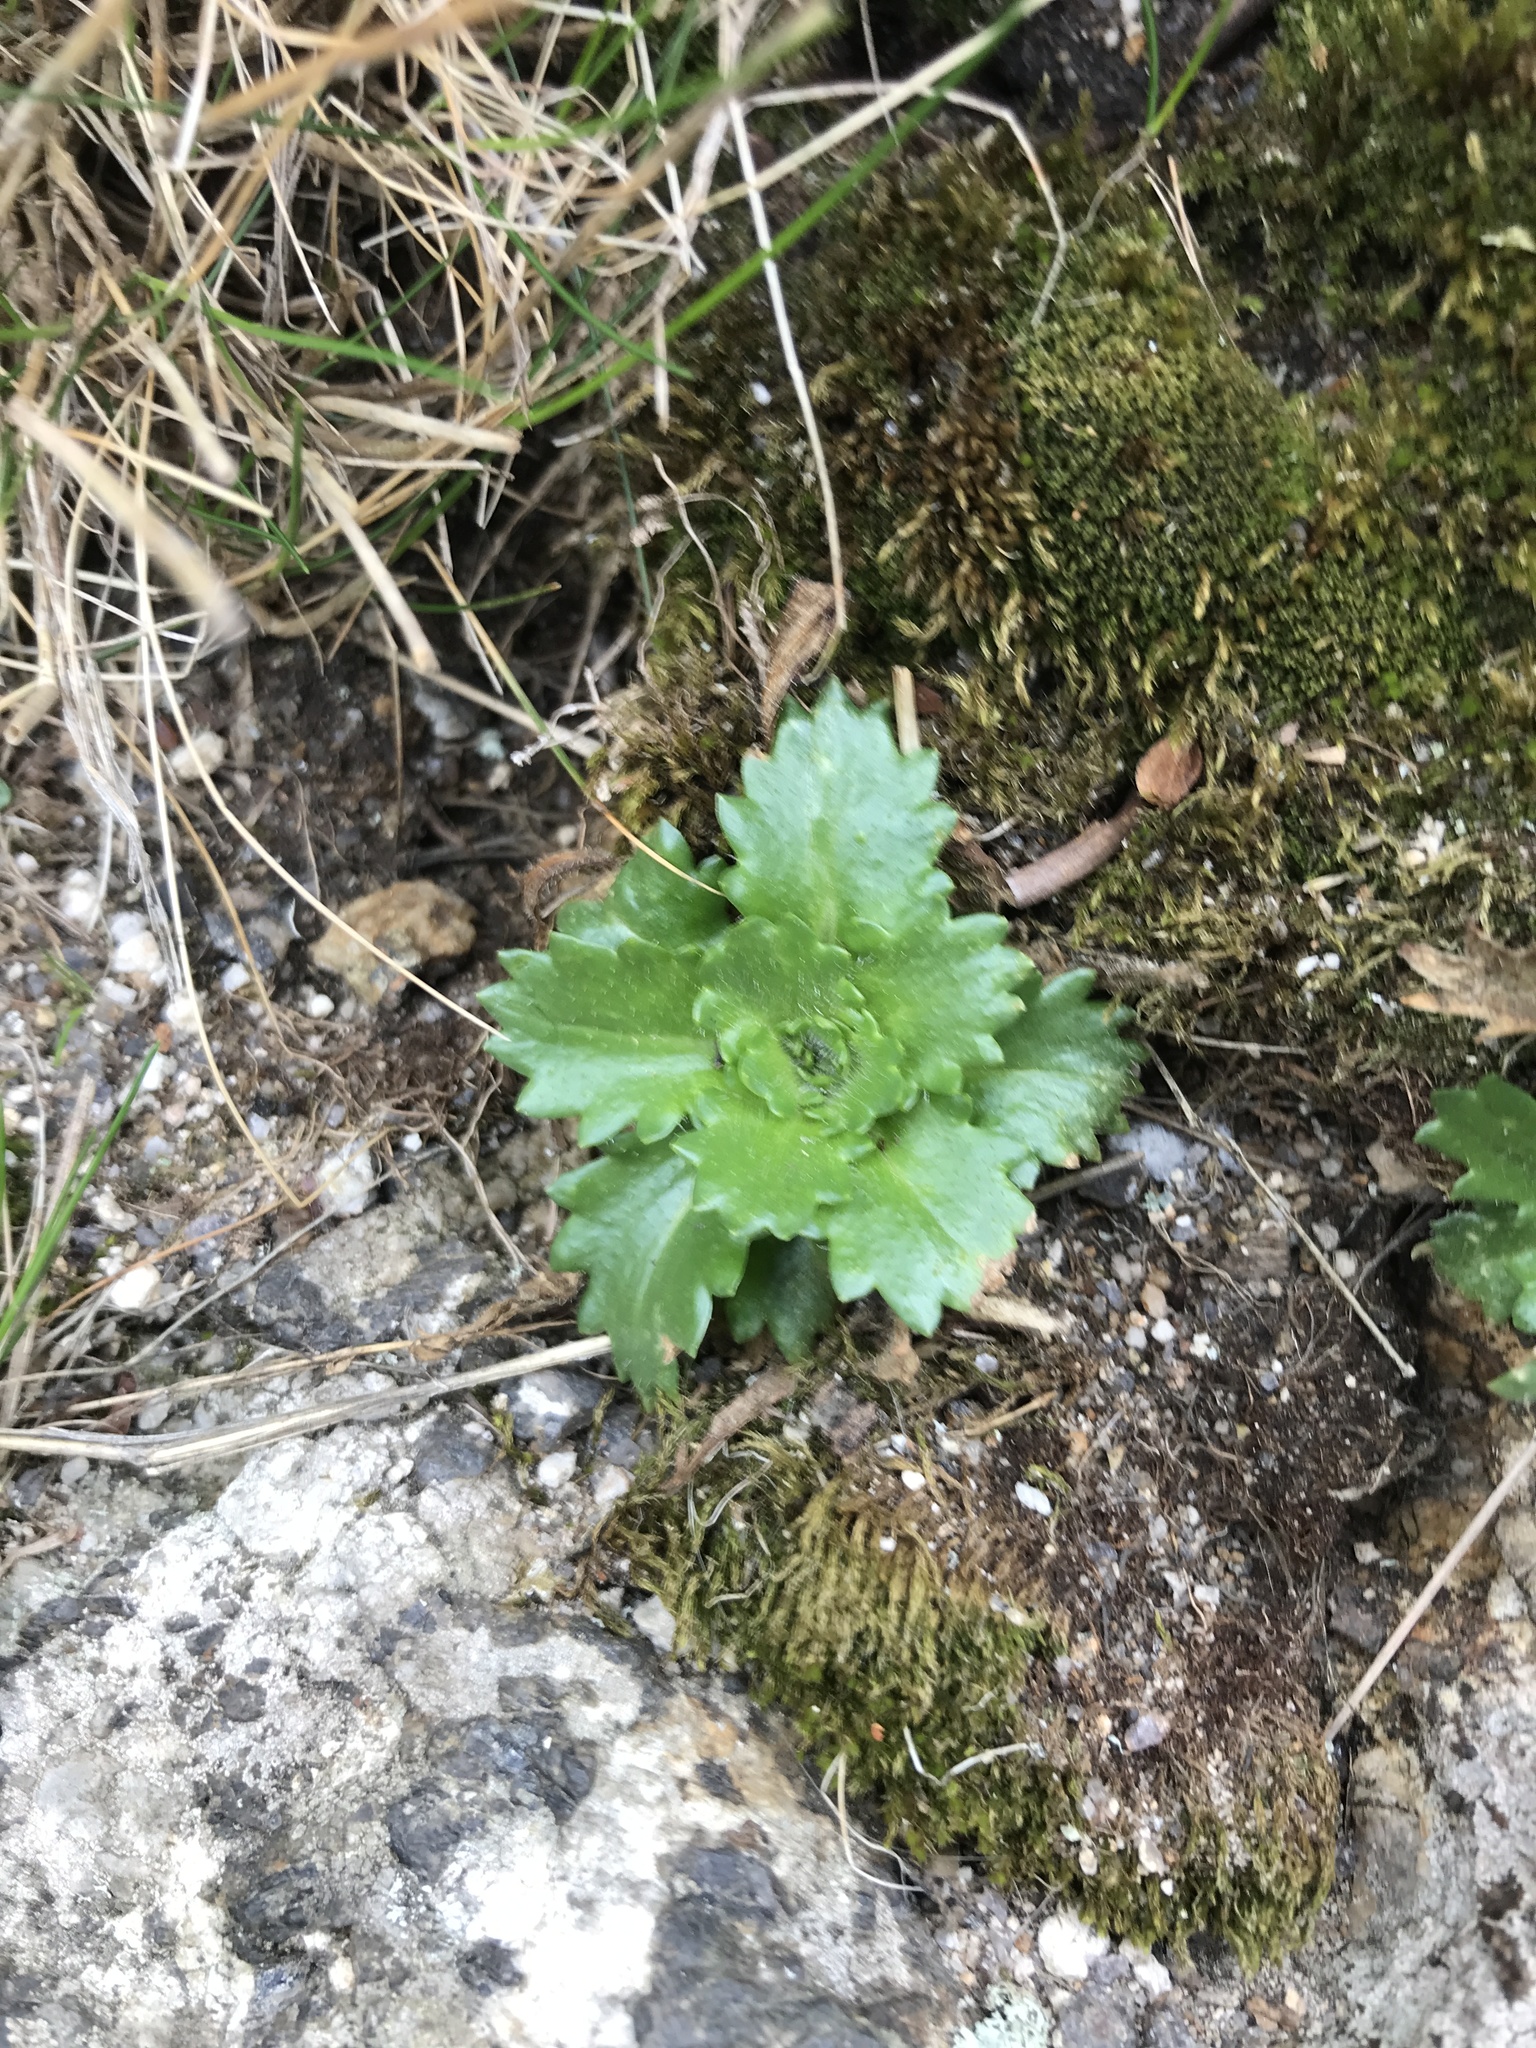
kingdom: Plantae
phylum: Tracheophyta
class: Magnoliopsida
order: Saxifragales
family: Saxifragaceae
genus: Micranthes
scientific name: Micranthes petiolaris
